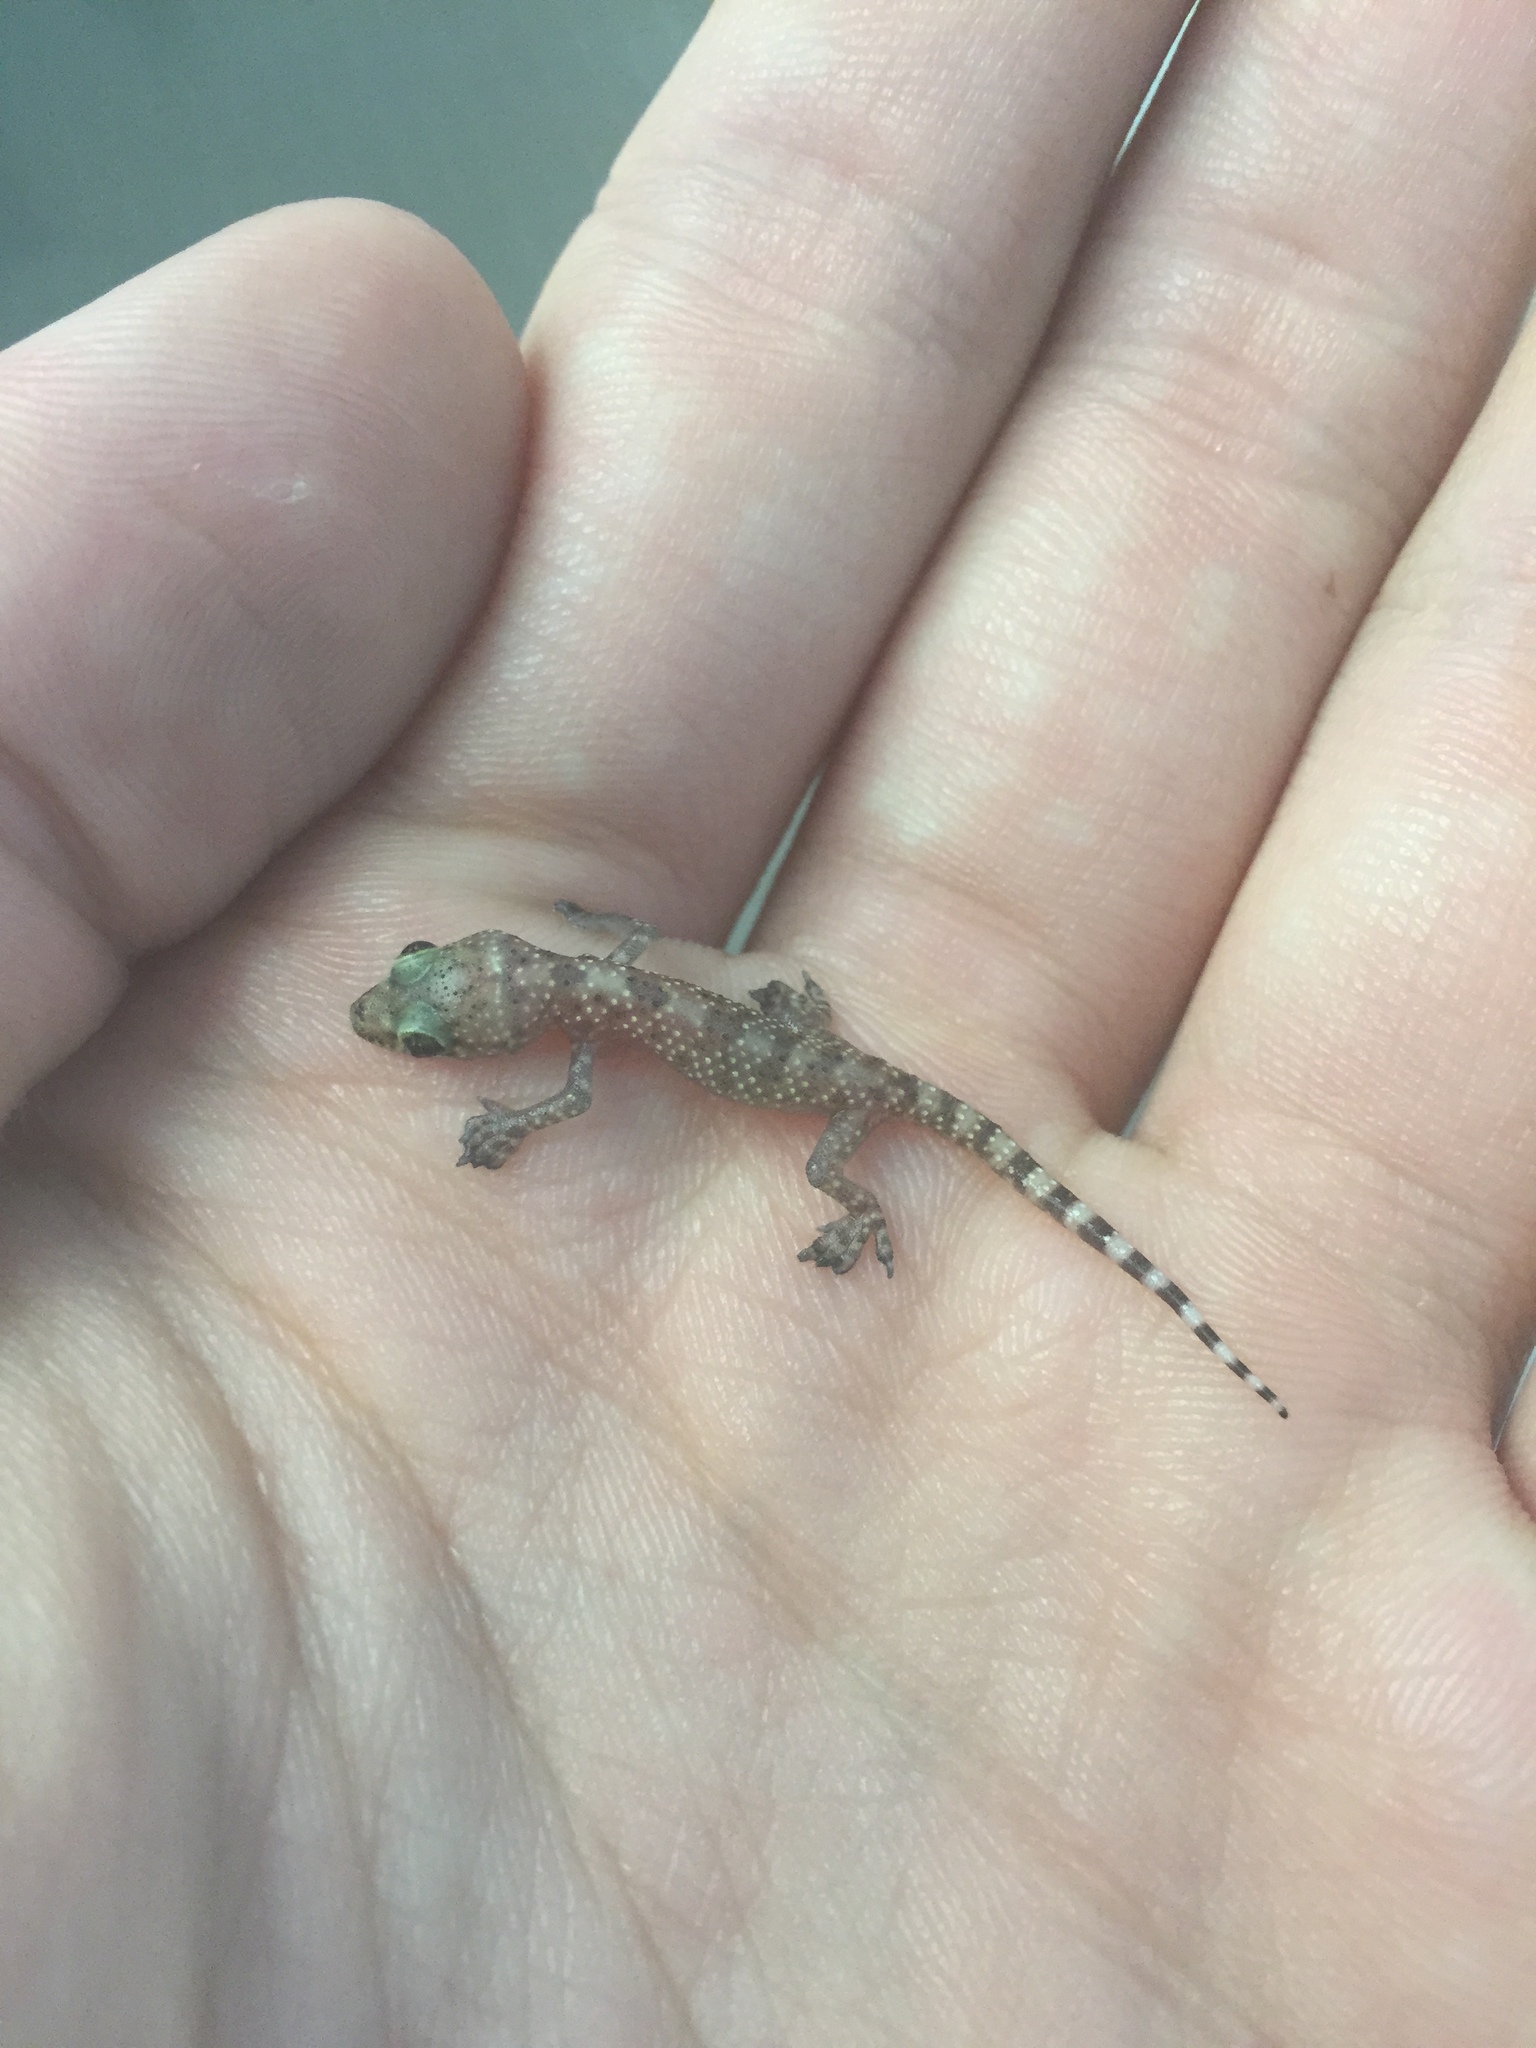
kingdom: Animalia
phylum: Chordata
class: Squamata
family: Gekkonidae
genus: Hemidactylus
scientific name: Hemidactylus turcicus
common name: Turkish gecko
